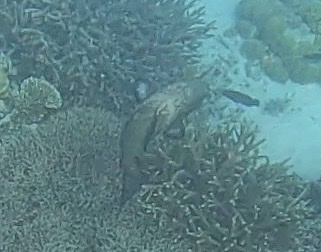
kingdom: Animalia
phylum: Chordata
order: Perciformes
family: Serranidae
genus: Plectropomus
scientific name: Plectropomus laevis
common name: Chinese footballer
